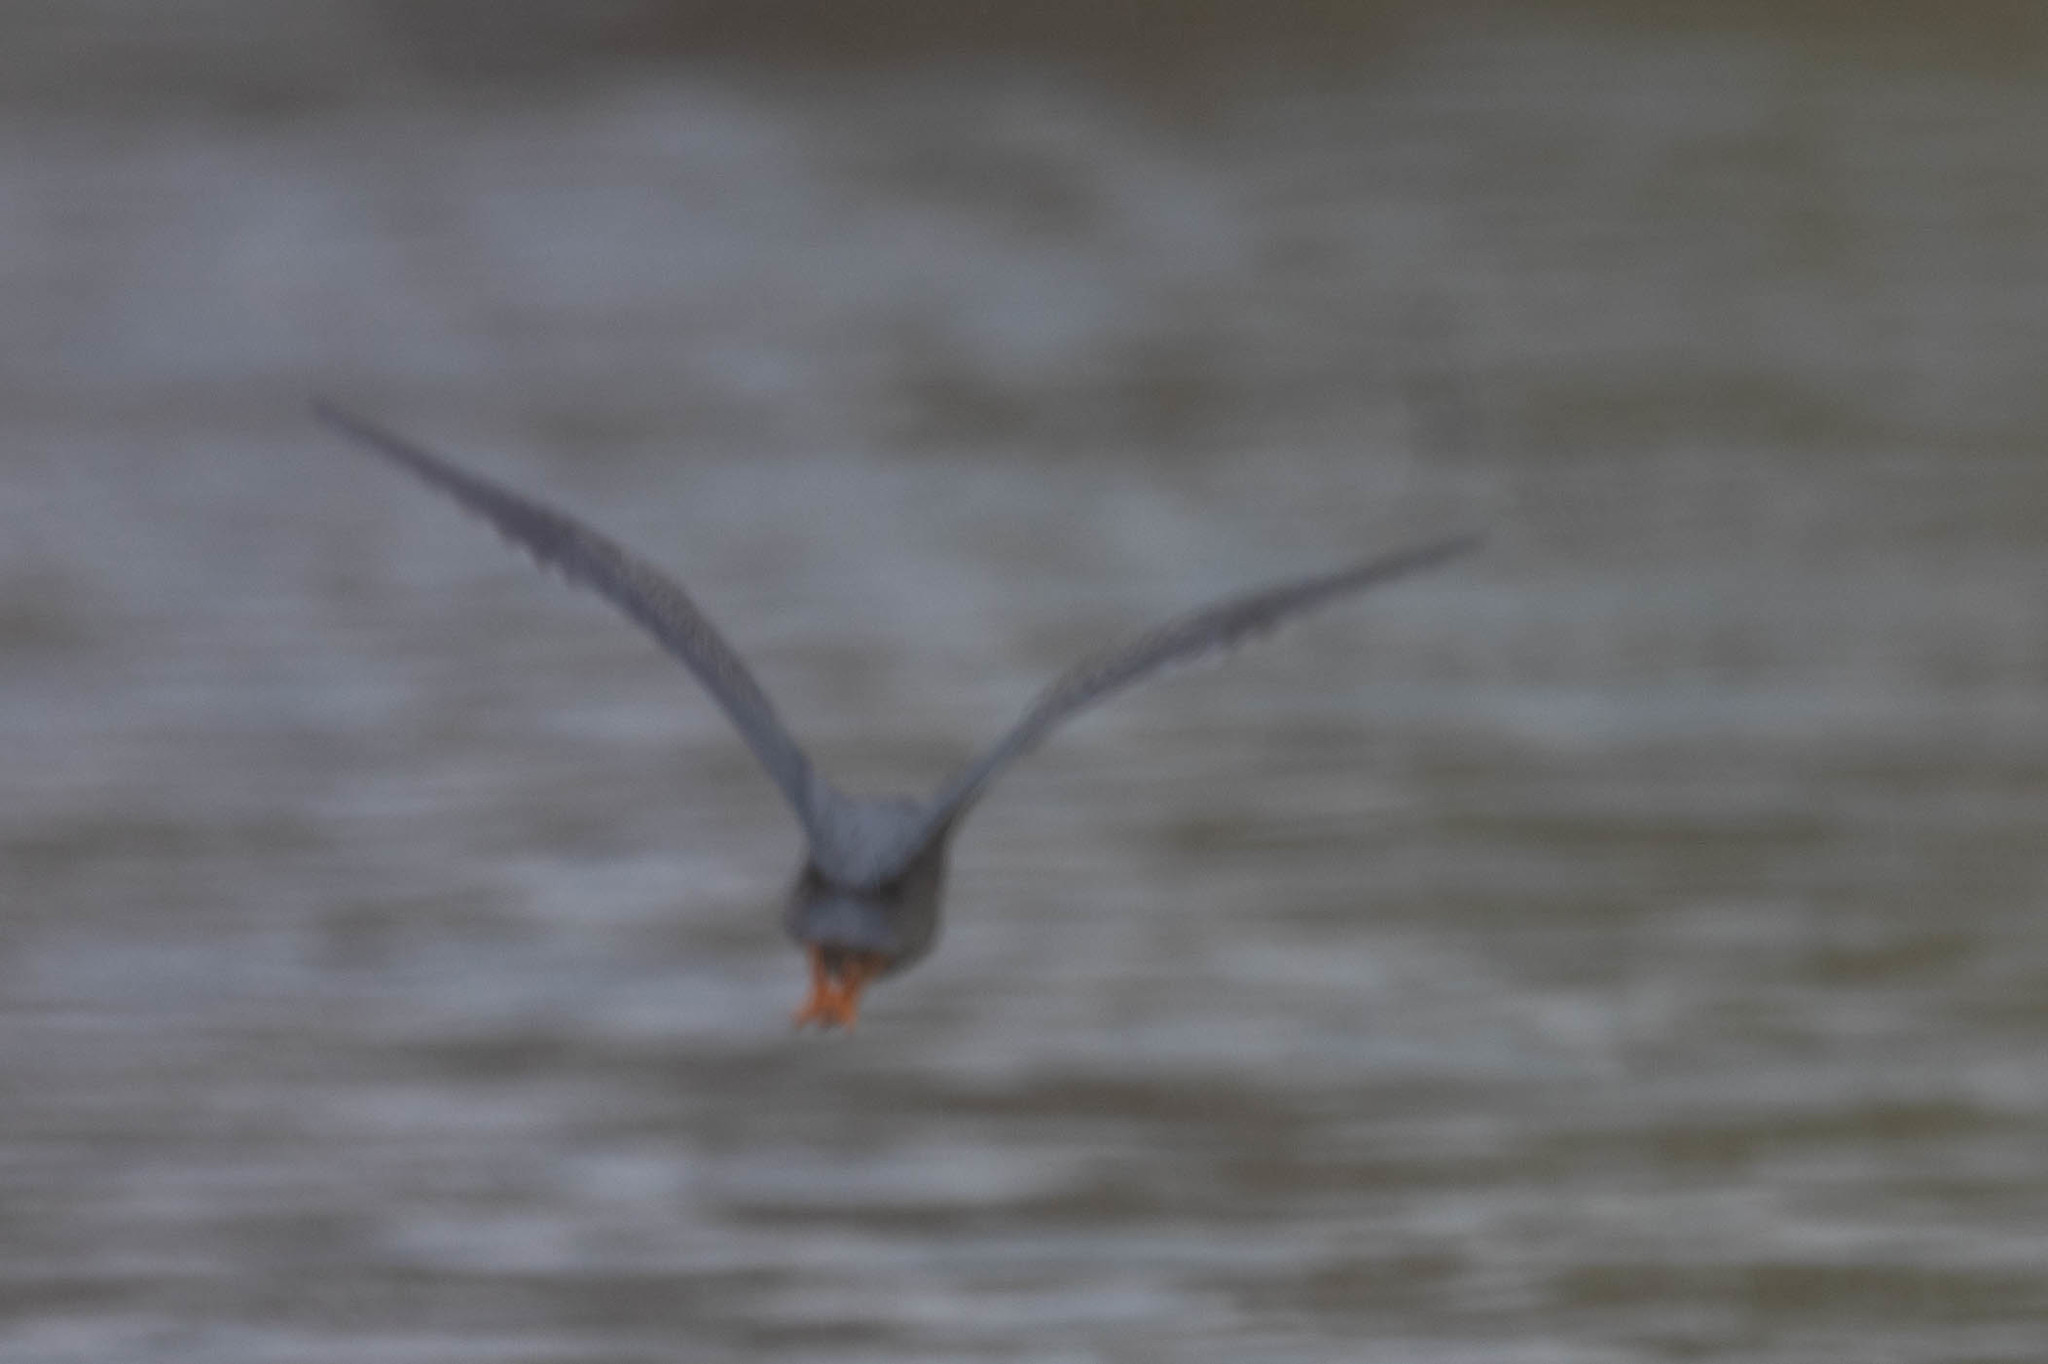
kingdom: Animalia
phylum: Chordata
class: Aves
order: Pelecaniformes
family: Ardeidae
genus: Butorides
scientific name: Butorides virescens
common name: Green heron
